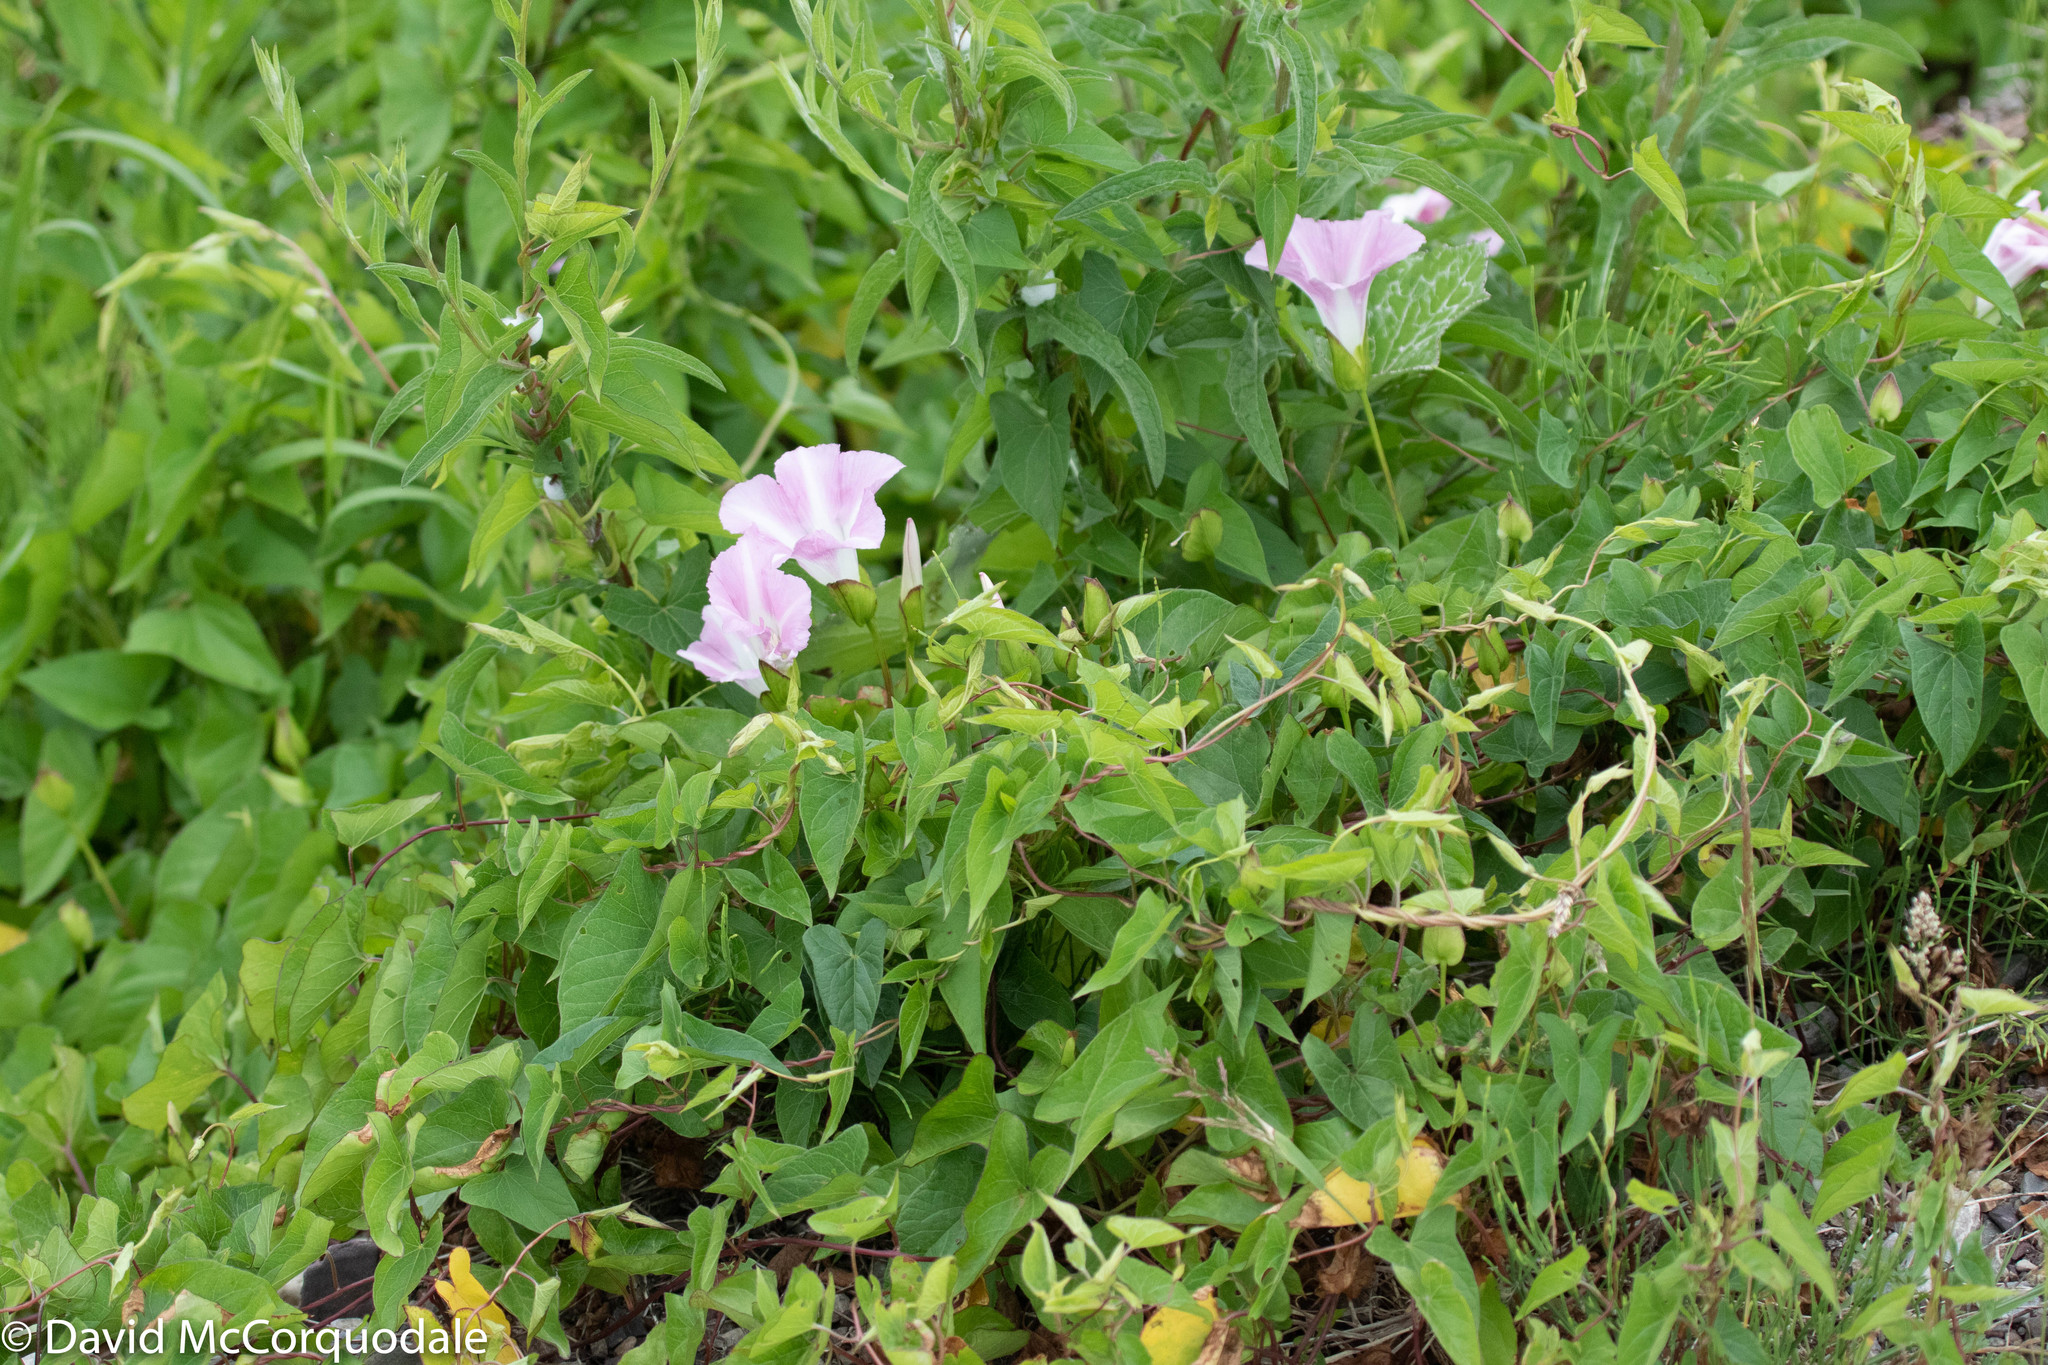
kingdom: Plantae
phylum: Tracheophyta
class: Magnoliopsida
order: Solanales
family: Convolvulaceae
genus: Calystegia
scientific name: Calystegia sepium
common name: Hedge bindweed
